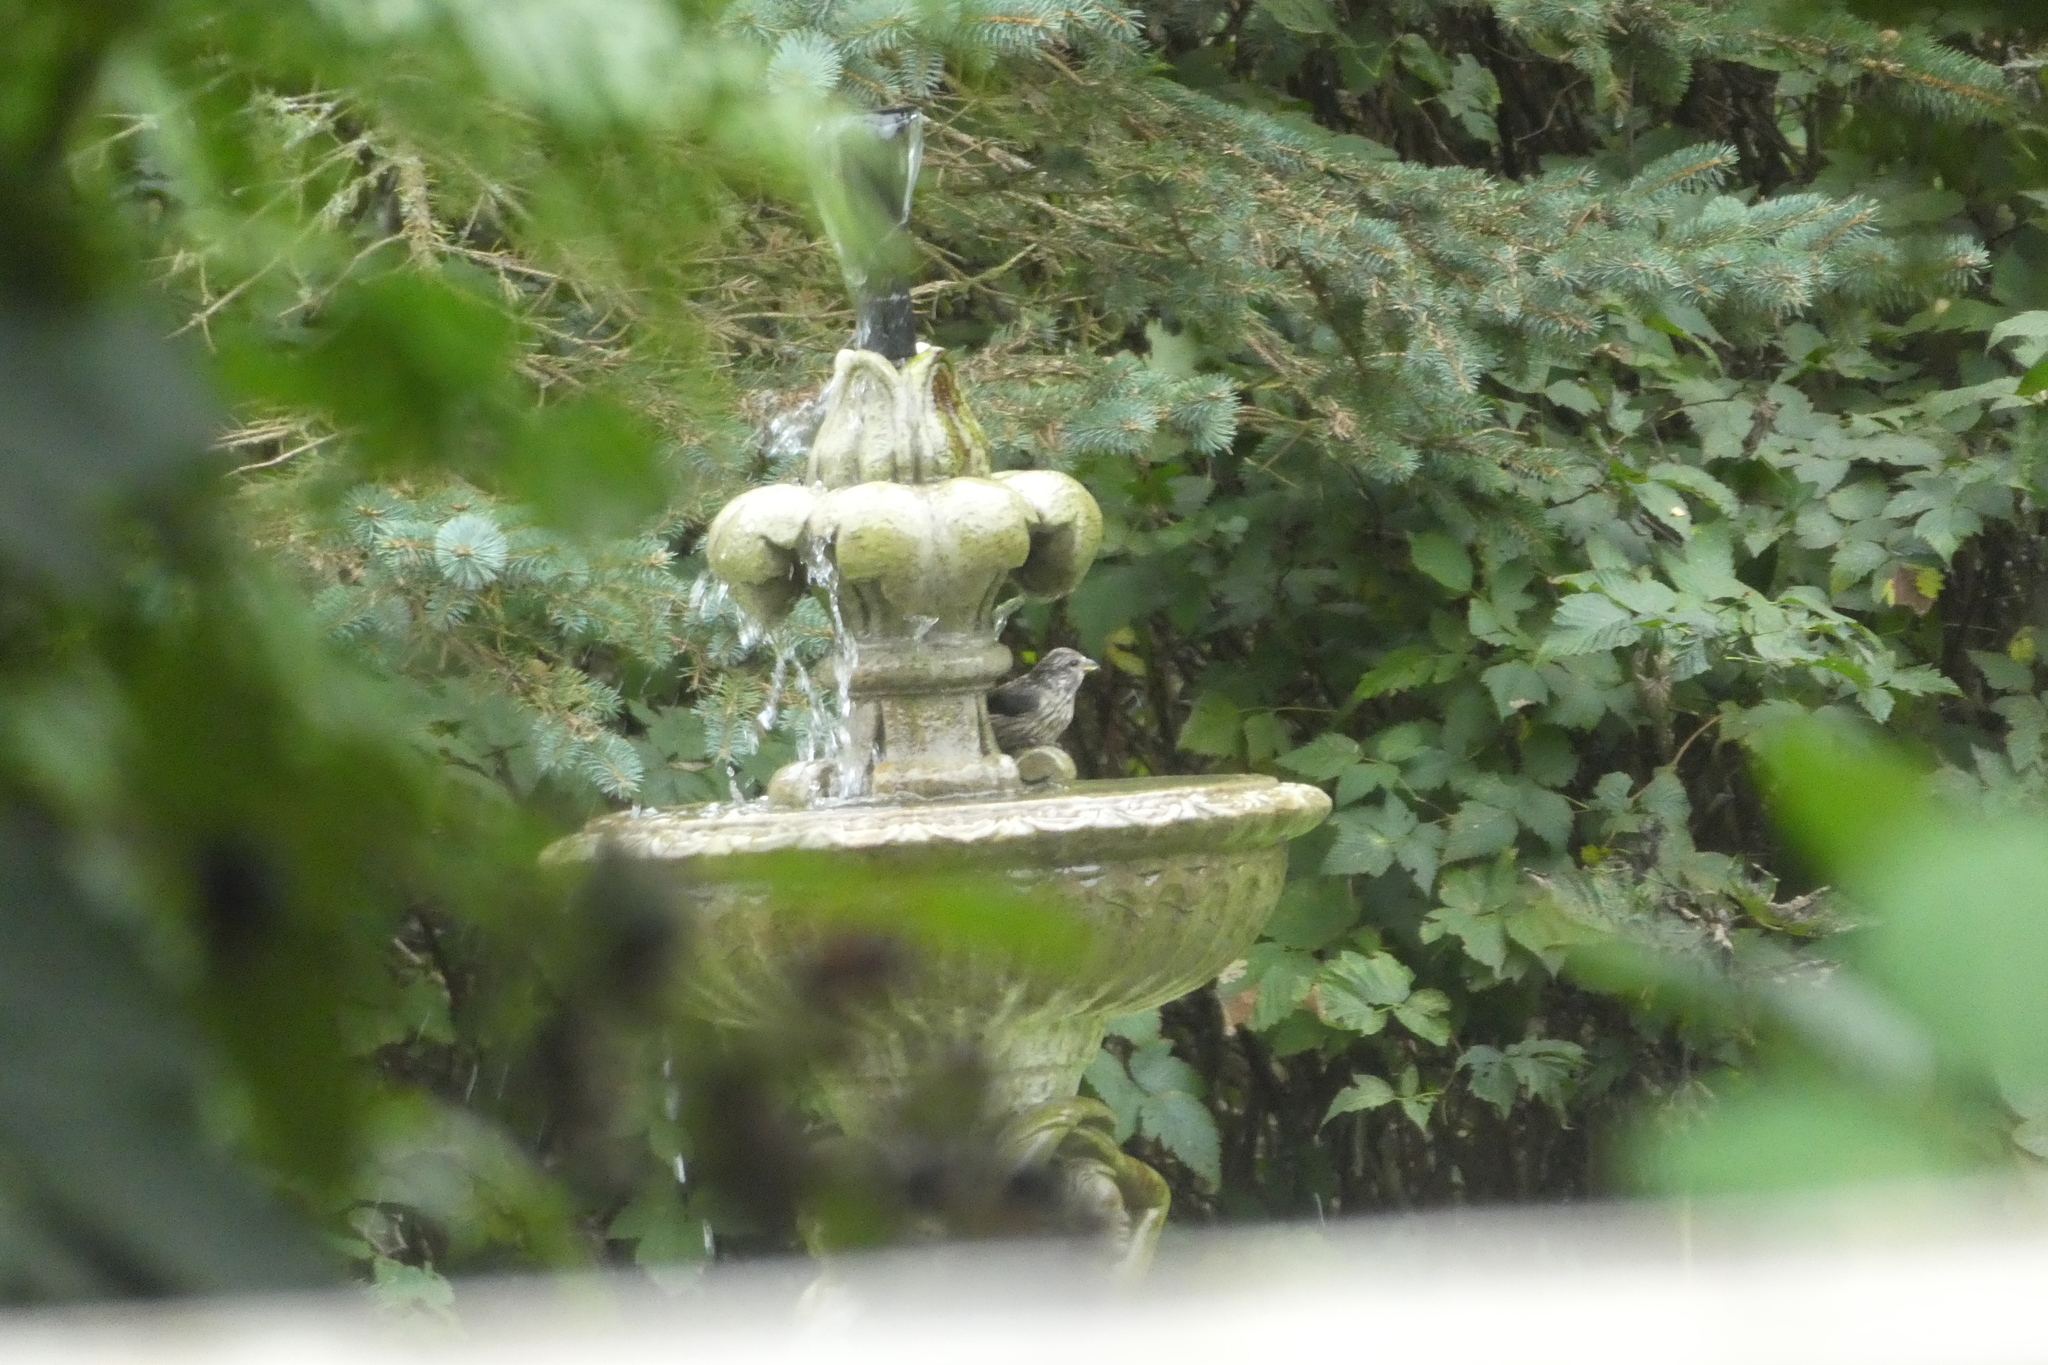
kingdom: Animalia
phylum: Chordata
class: Aves
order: Passeriformes
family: Fringillidae
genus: Haemorhous
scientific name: Haemorhous purpureus
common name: Purple finch
